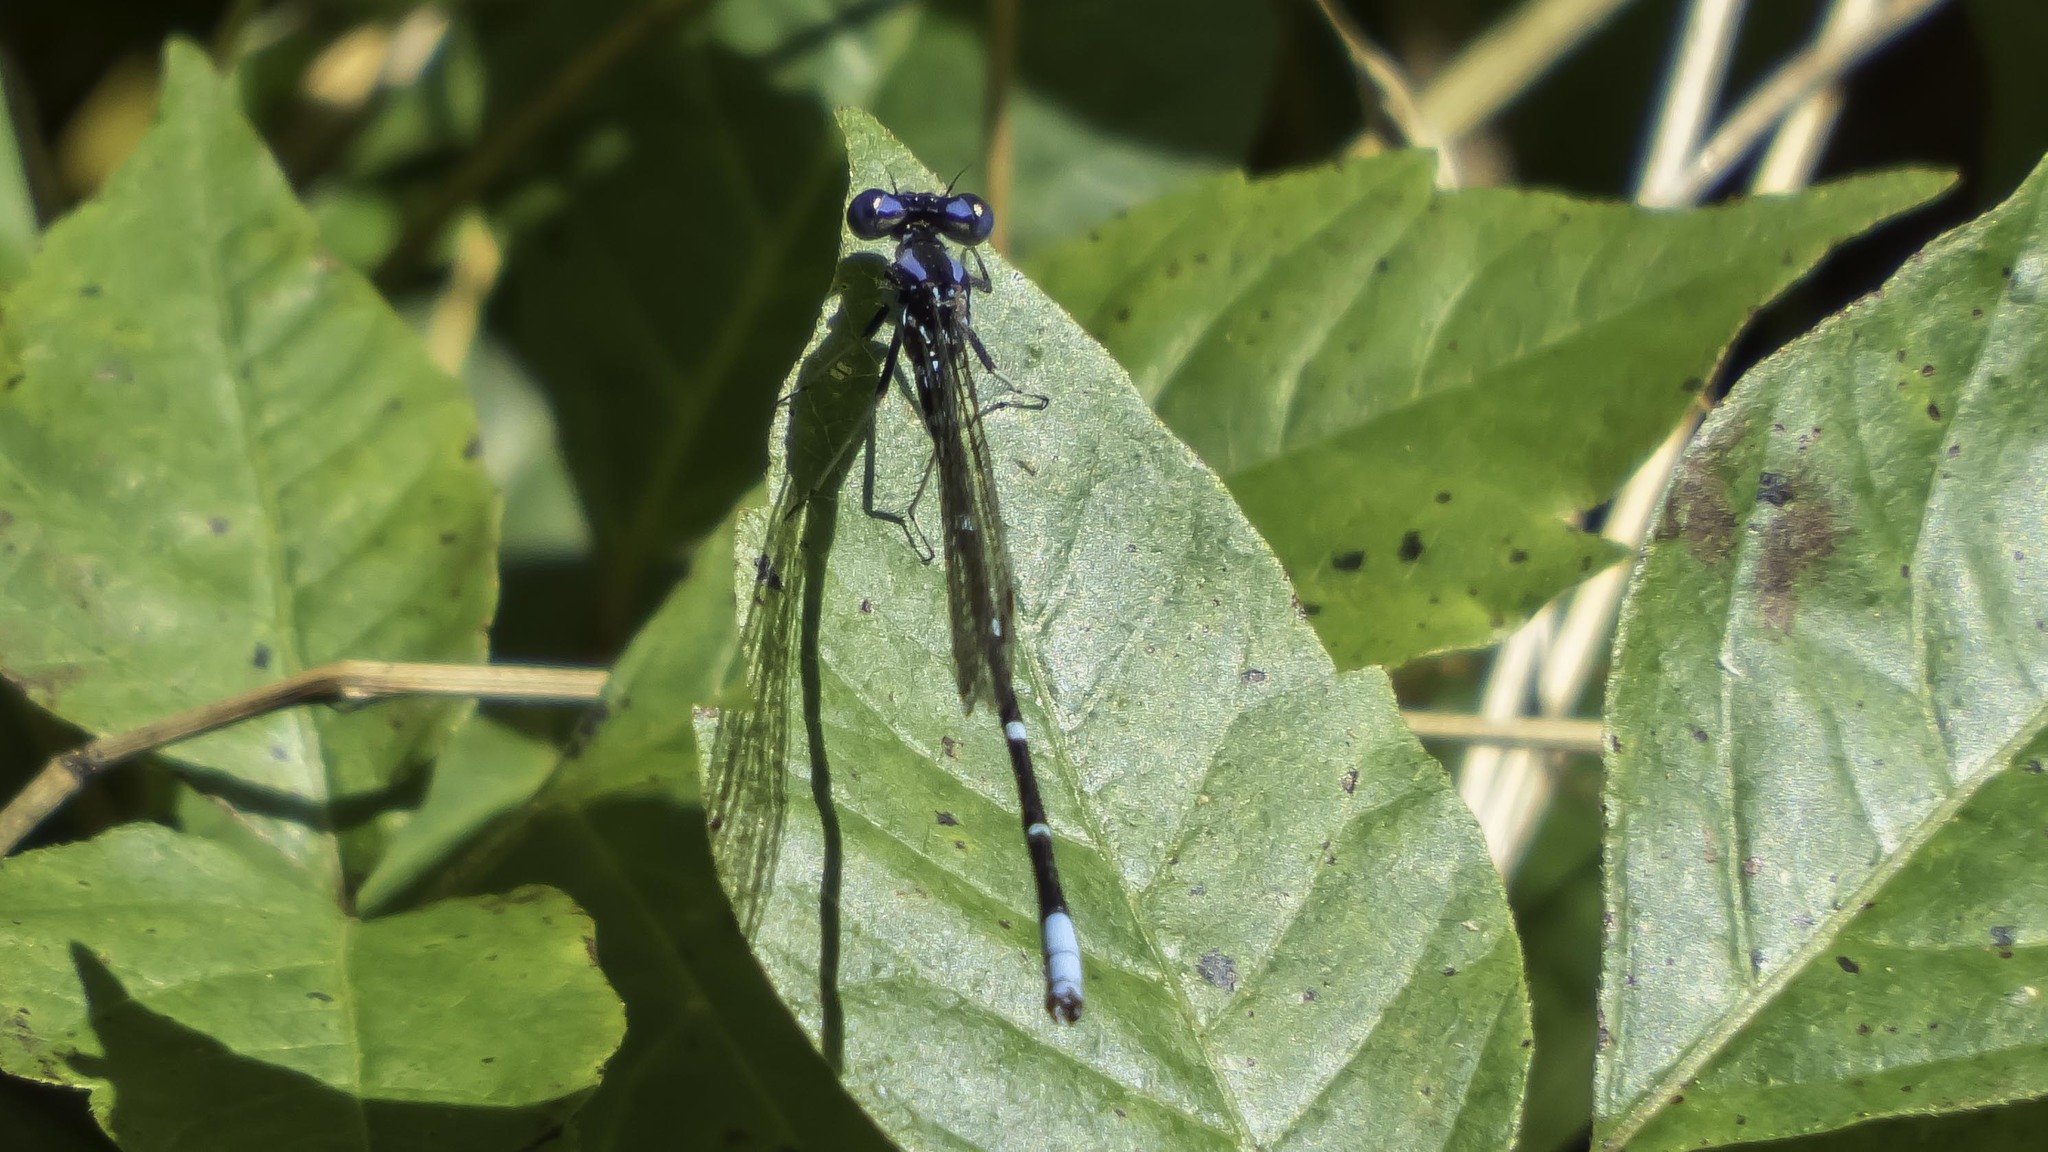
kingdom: Animalia
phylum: Arthropoda
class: Insecta
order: Odonata
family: Coenagrionidae
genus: Argia
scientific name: Argia sedula
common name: Blue-ringed dancer
